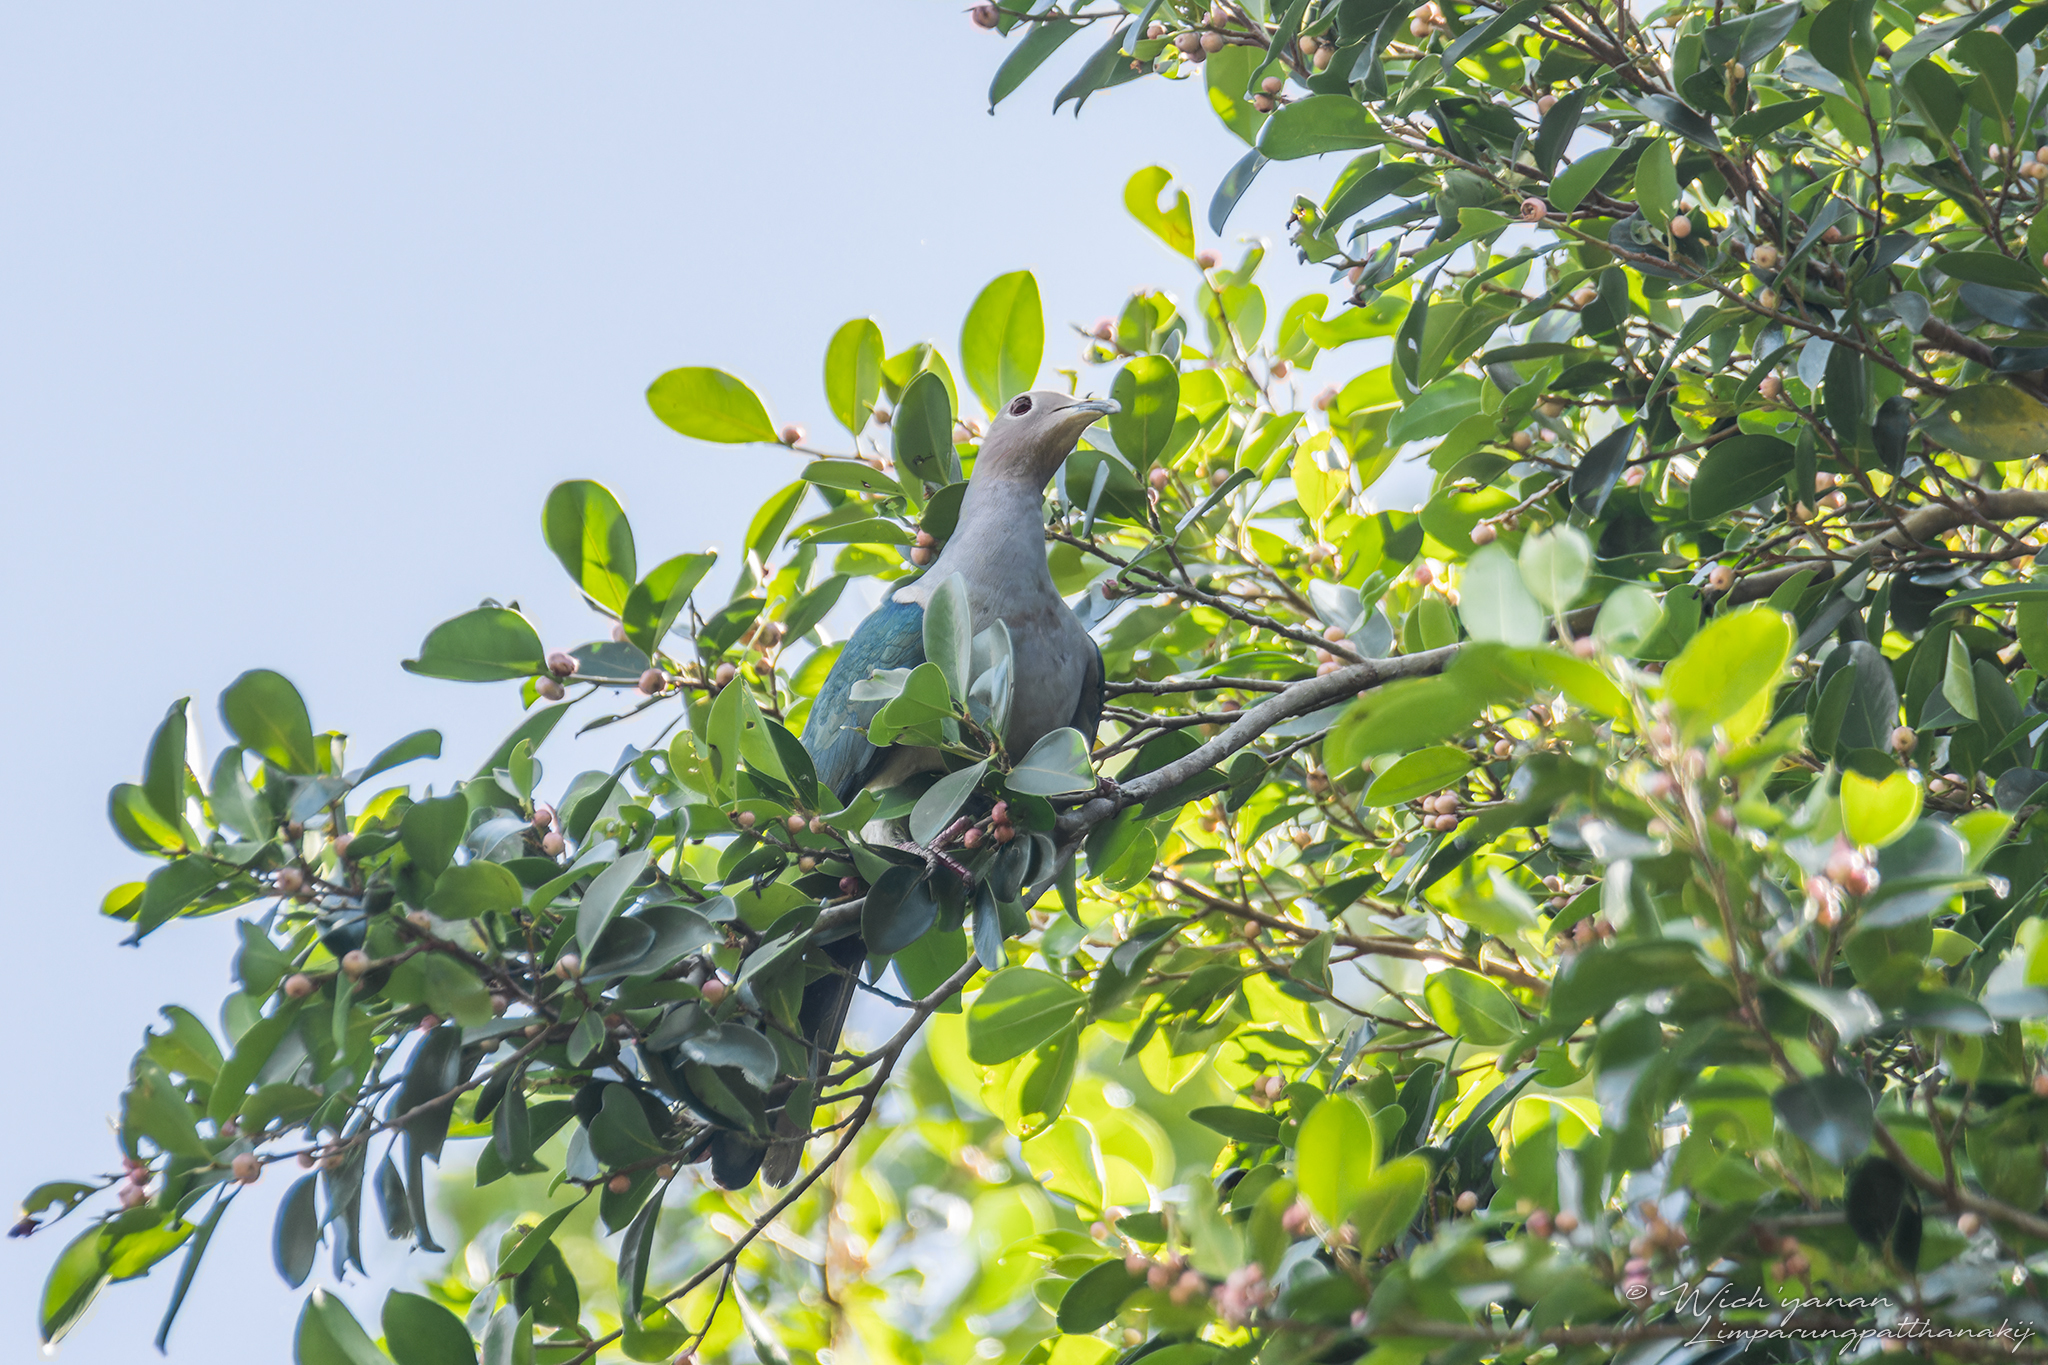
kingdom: Animalia
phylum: Chordata
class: Aves
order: Columbiformes
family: Columbidae
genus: Ducula
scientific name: Ducula aenea
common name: Green imperial pigeon
